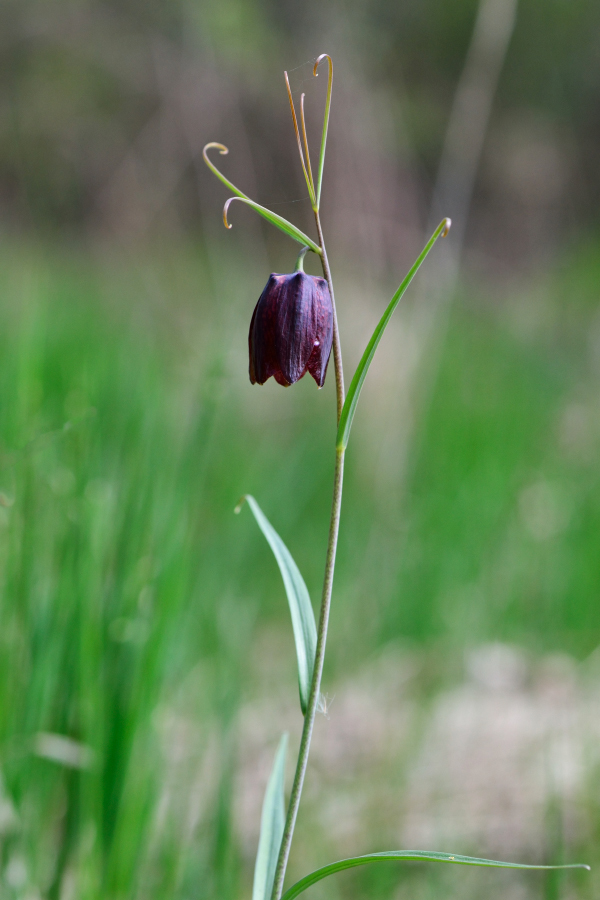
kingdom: Plantae
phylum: Tracheophyta
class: Liliopsida
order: Liliales
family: Liliaceae
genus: Fritillaria
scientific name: Fritillaria ruthenica
